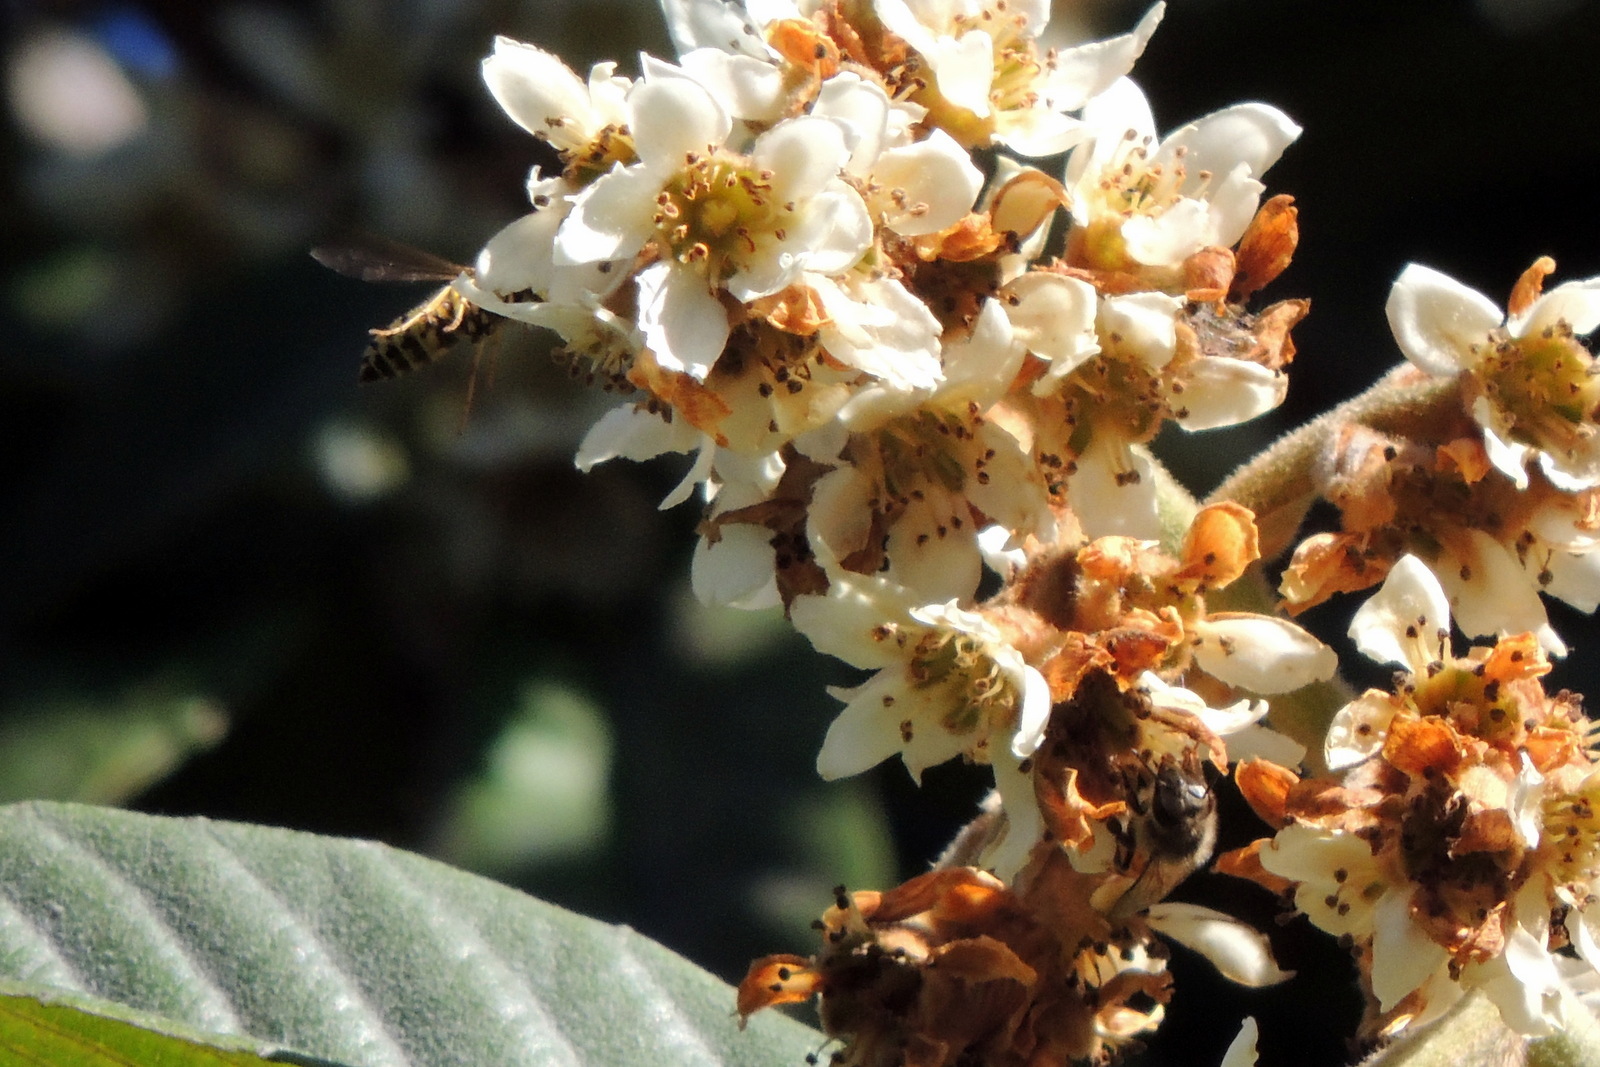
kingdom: Animalia
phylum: Arthropoda
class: Insecta
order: Hymenoptera
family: Vespidae
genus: Vespula
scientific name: Vespula
